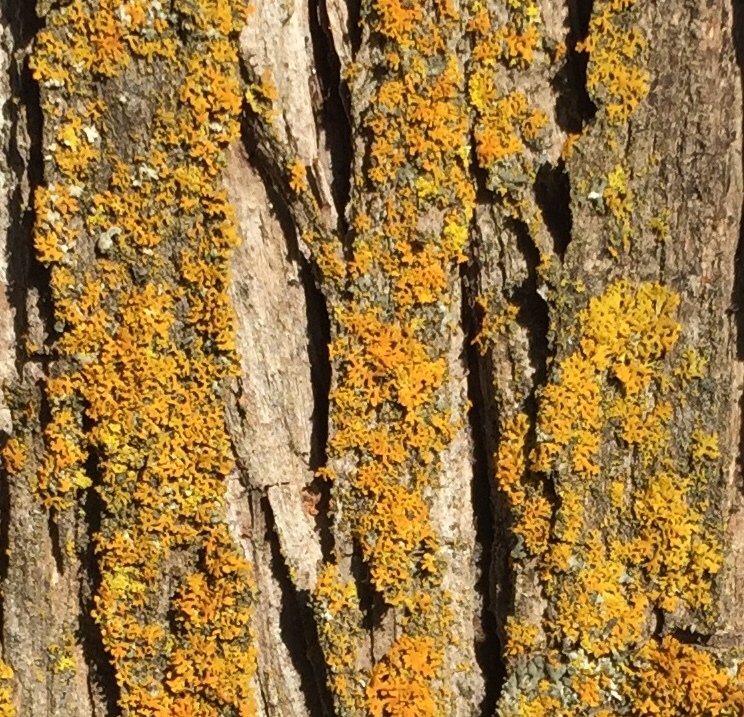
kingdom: Fungi
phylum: Ascomycota
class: Lecanoromycetes
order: Teloschistales
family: Teloschistaceae
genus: Gallowayella
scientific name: Gallowayella weberi
